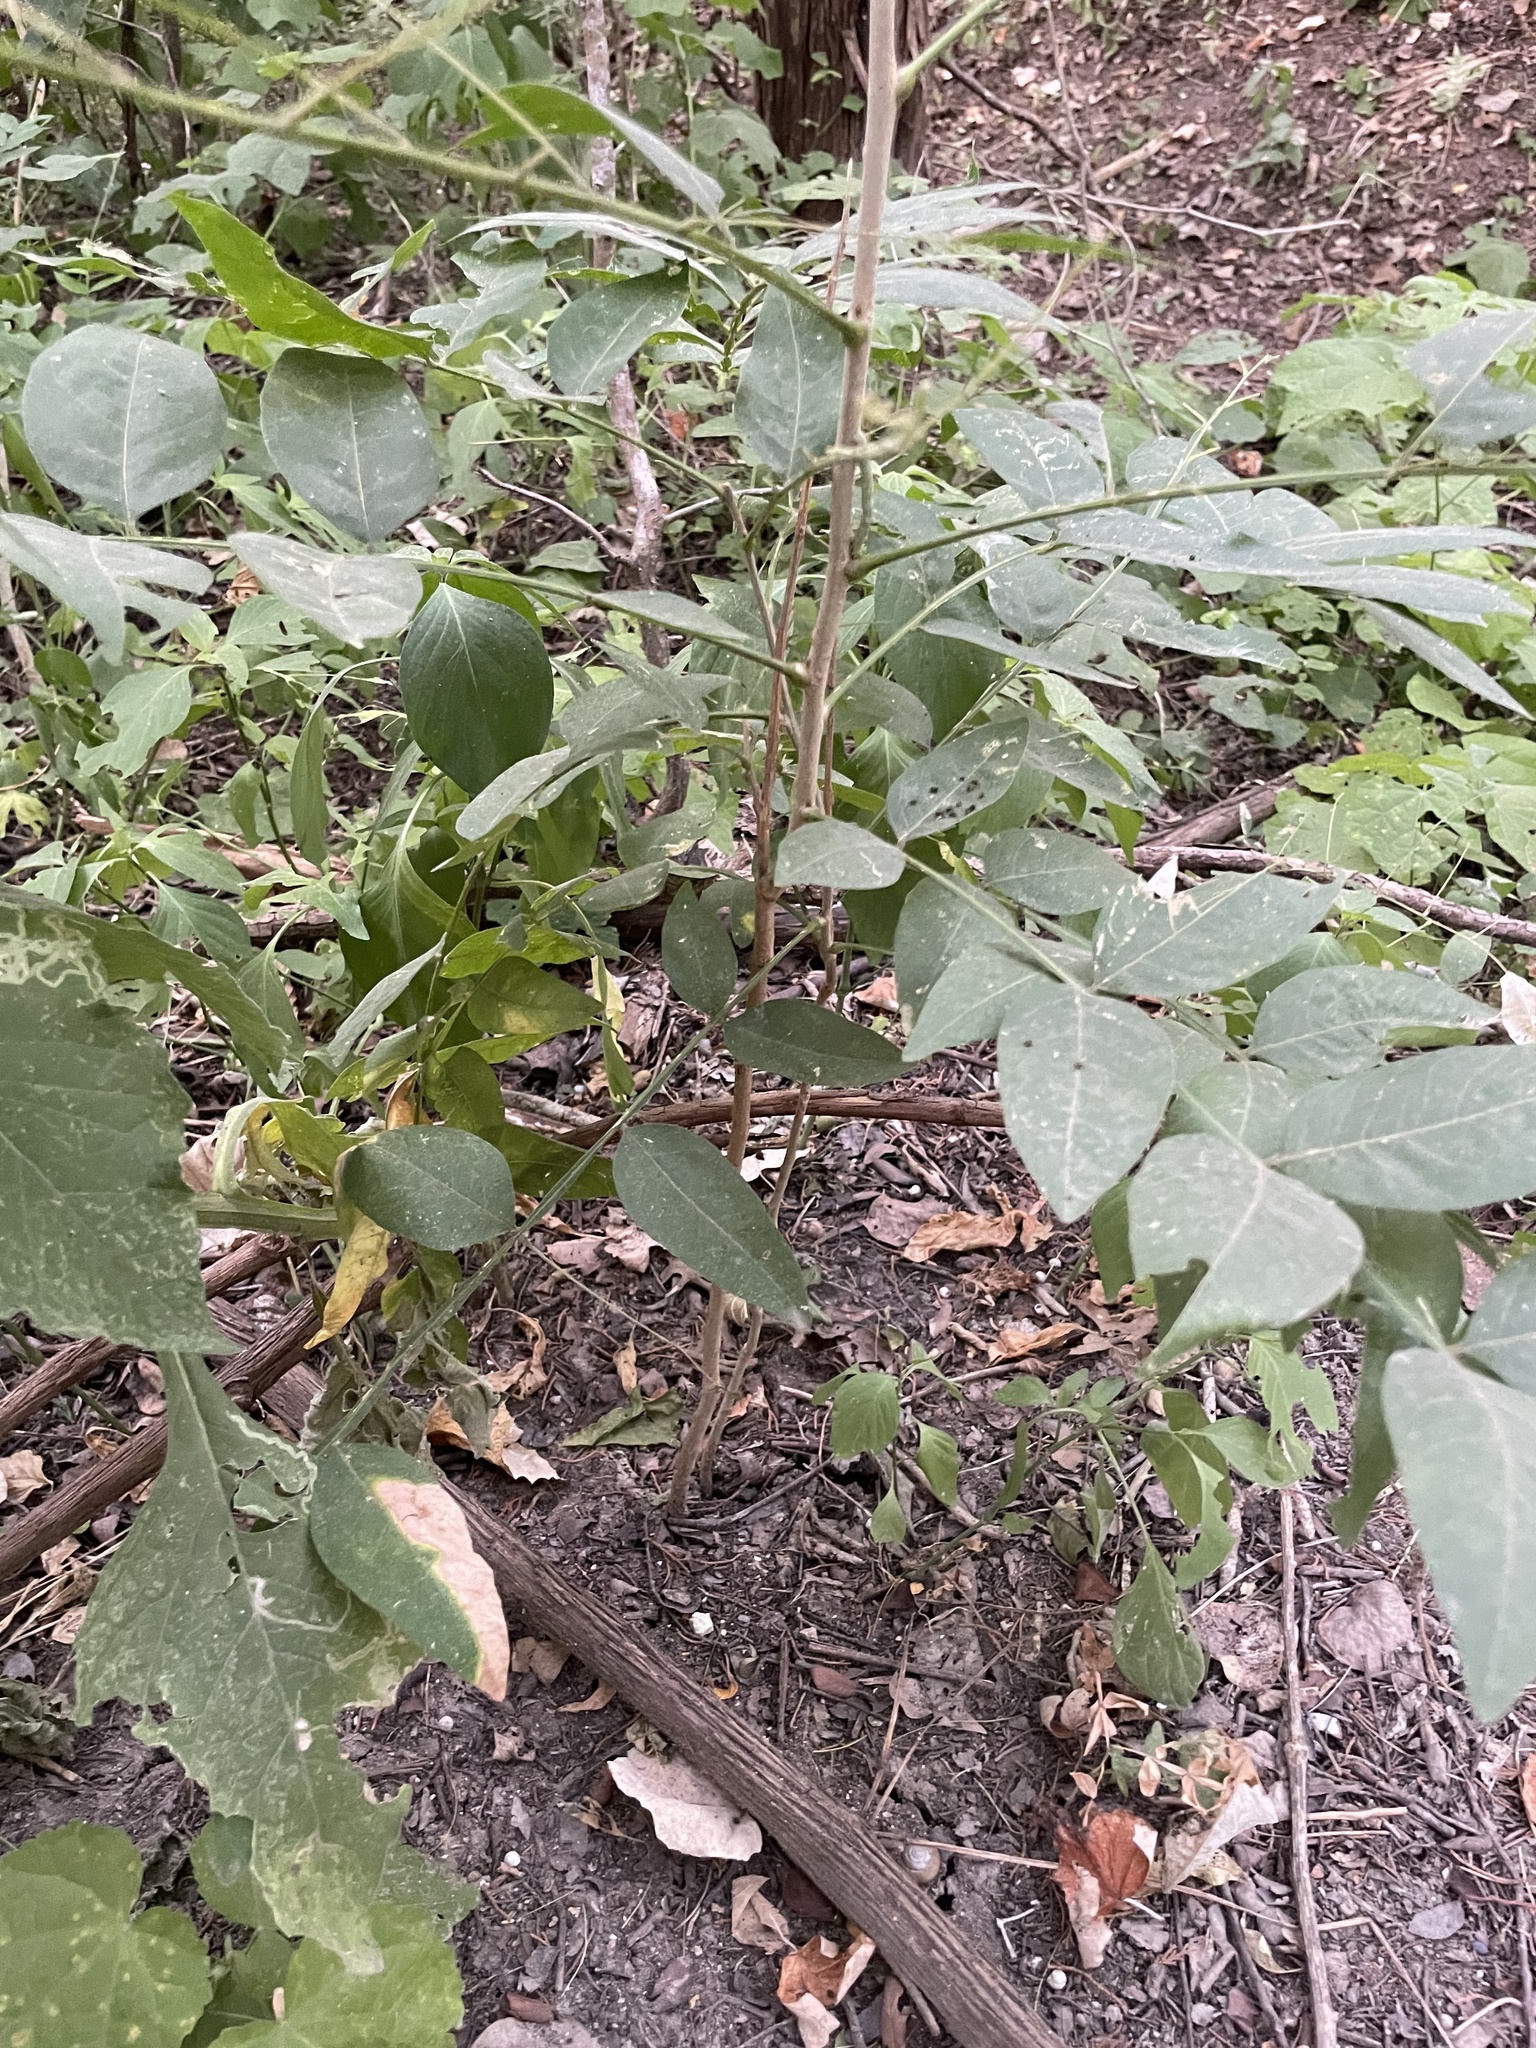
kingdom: Plantae
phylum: Tracheophyta
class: Magnoliopsida
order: Sapindales
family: Sapindaceae
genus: Sapindus
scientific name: Sapindus drummondii
